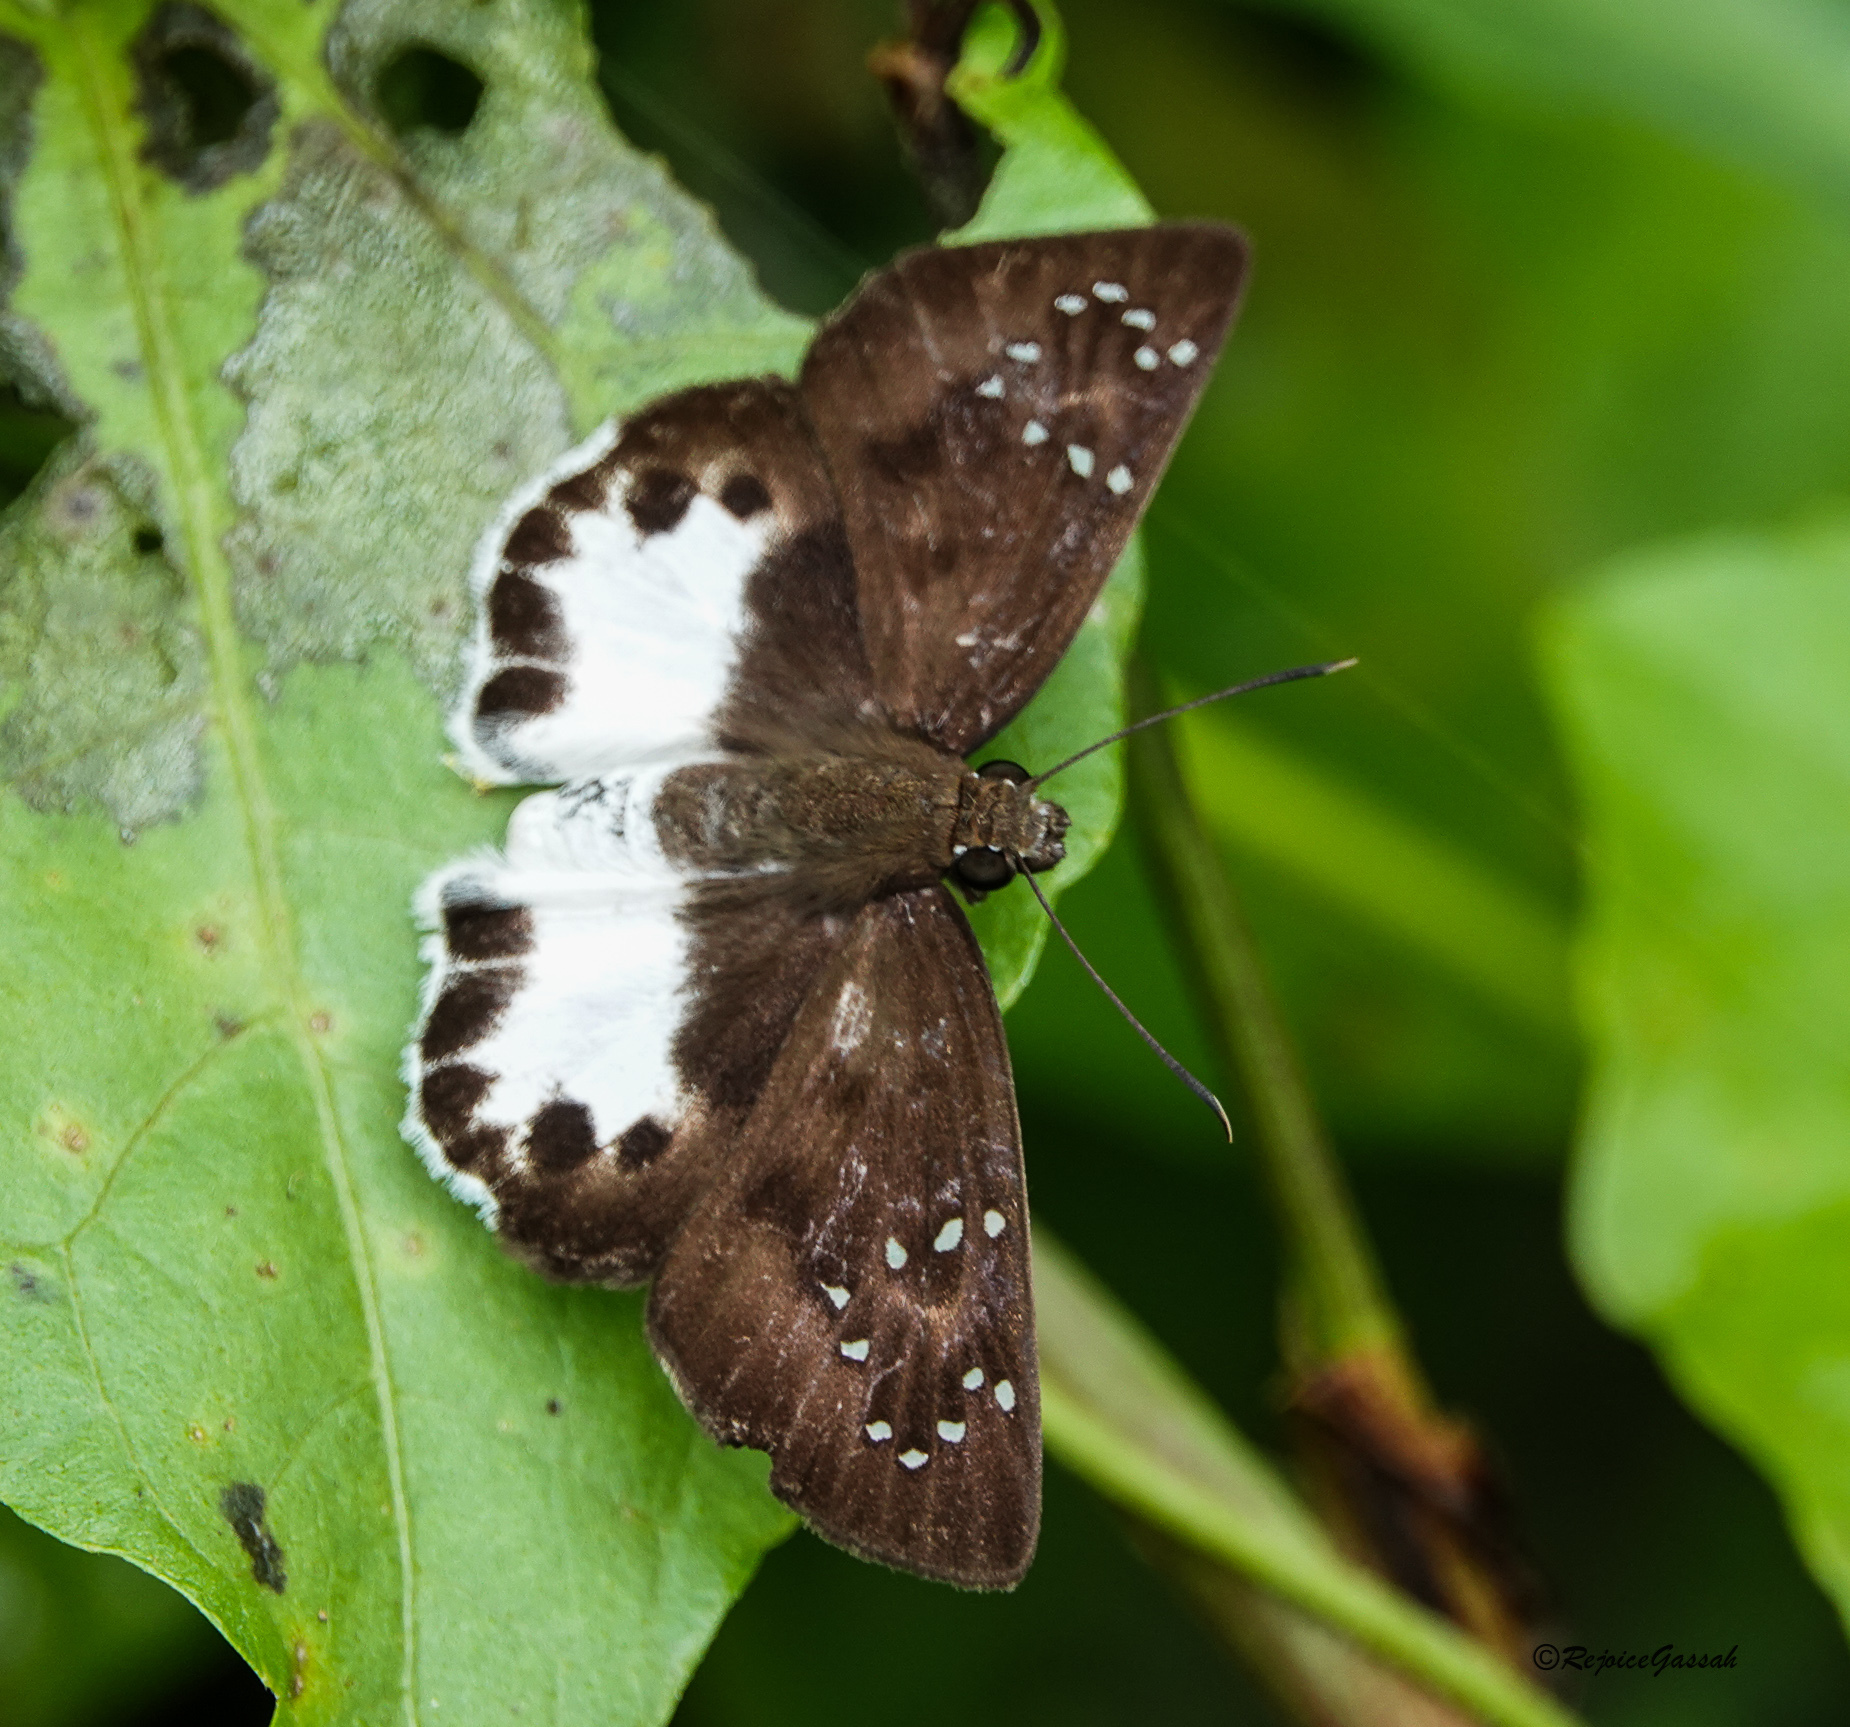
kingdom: Animalia
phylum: Arthropoda
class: Insecta
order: Lepidoptera
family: Hesperiidae
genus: Tagiades
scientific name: Tagiades litigiosa
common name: Water snow flat
